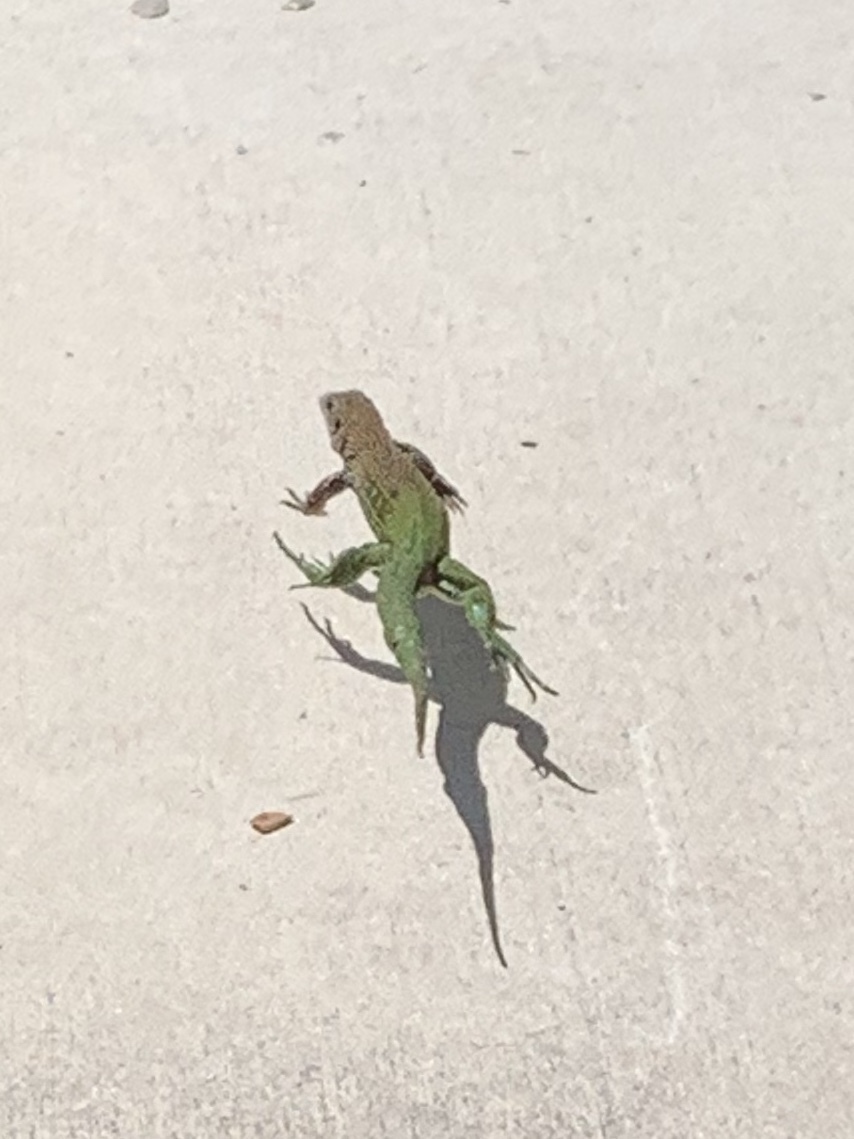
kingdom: Animalia
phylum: Chordata
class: Squamata
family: Teiidae
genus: Ameiva
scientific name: Ameiva ameiva
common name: Giant ameiva
